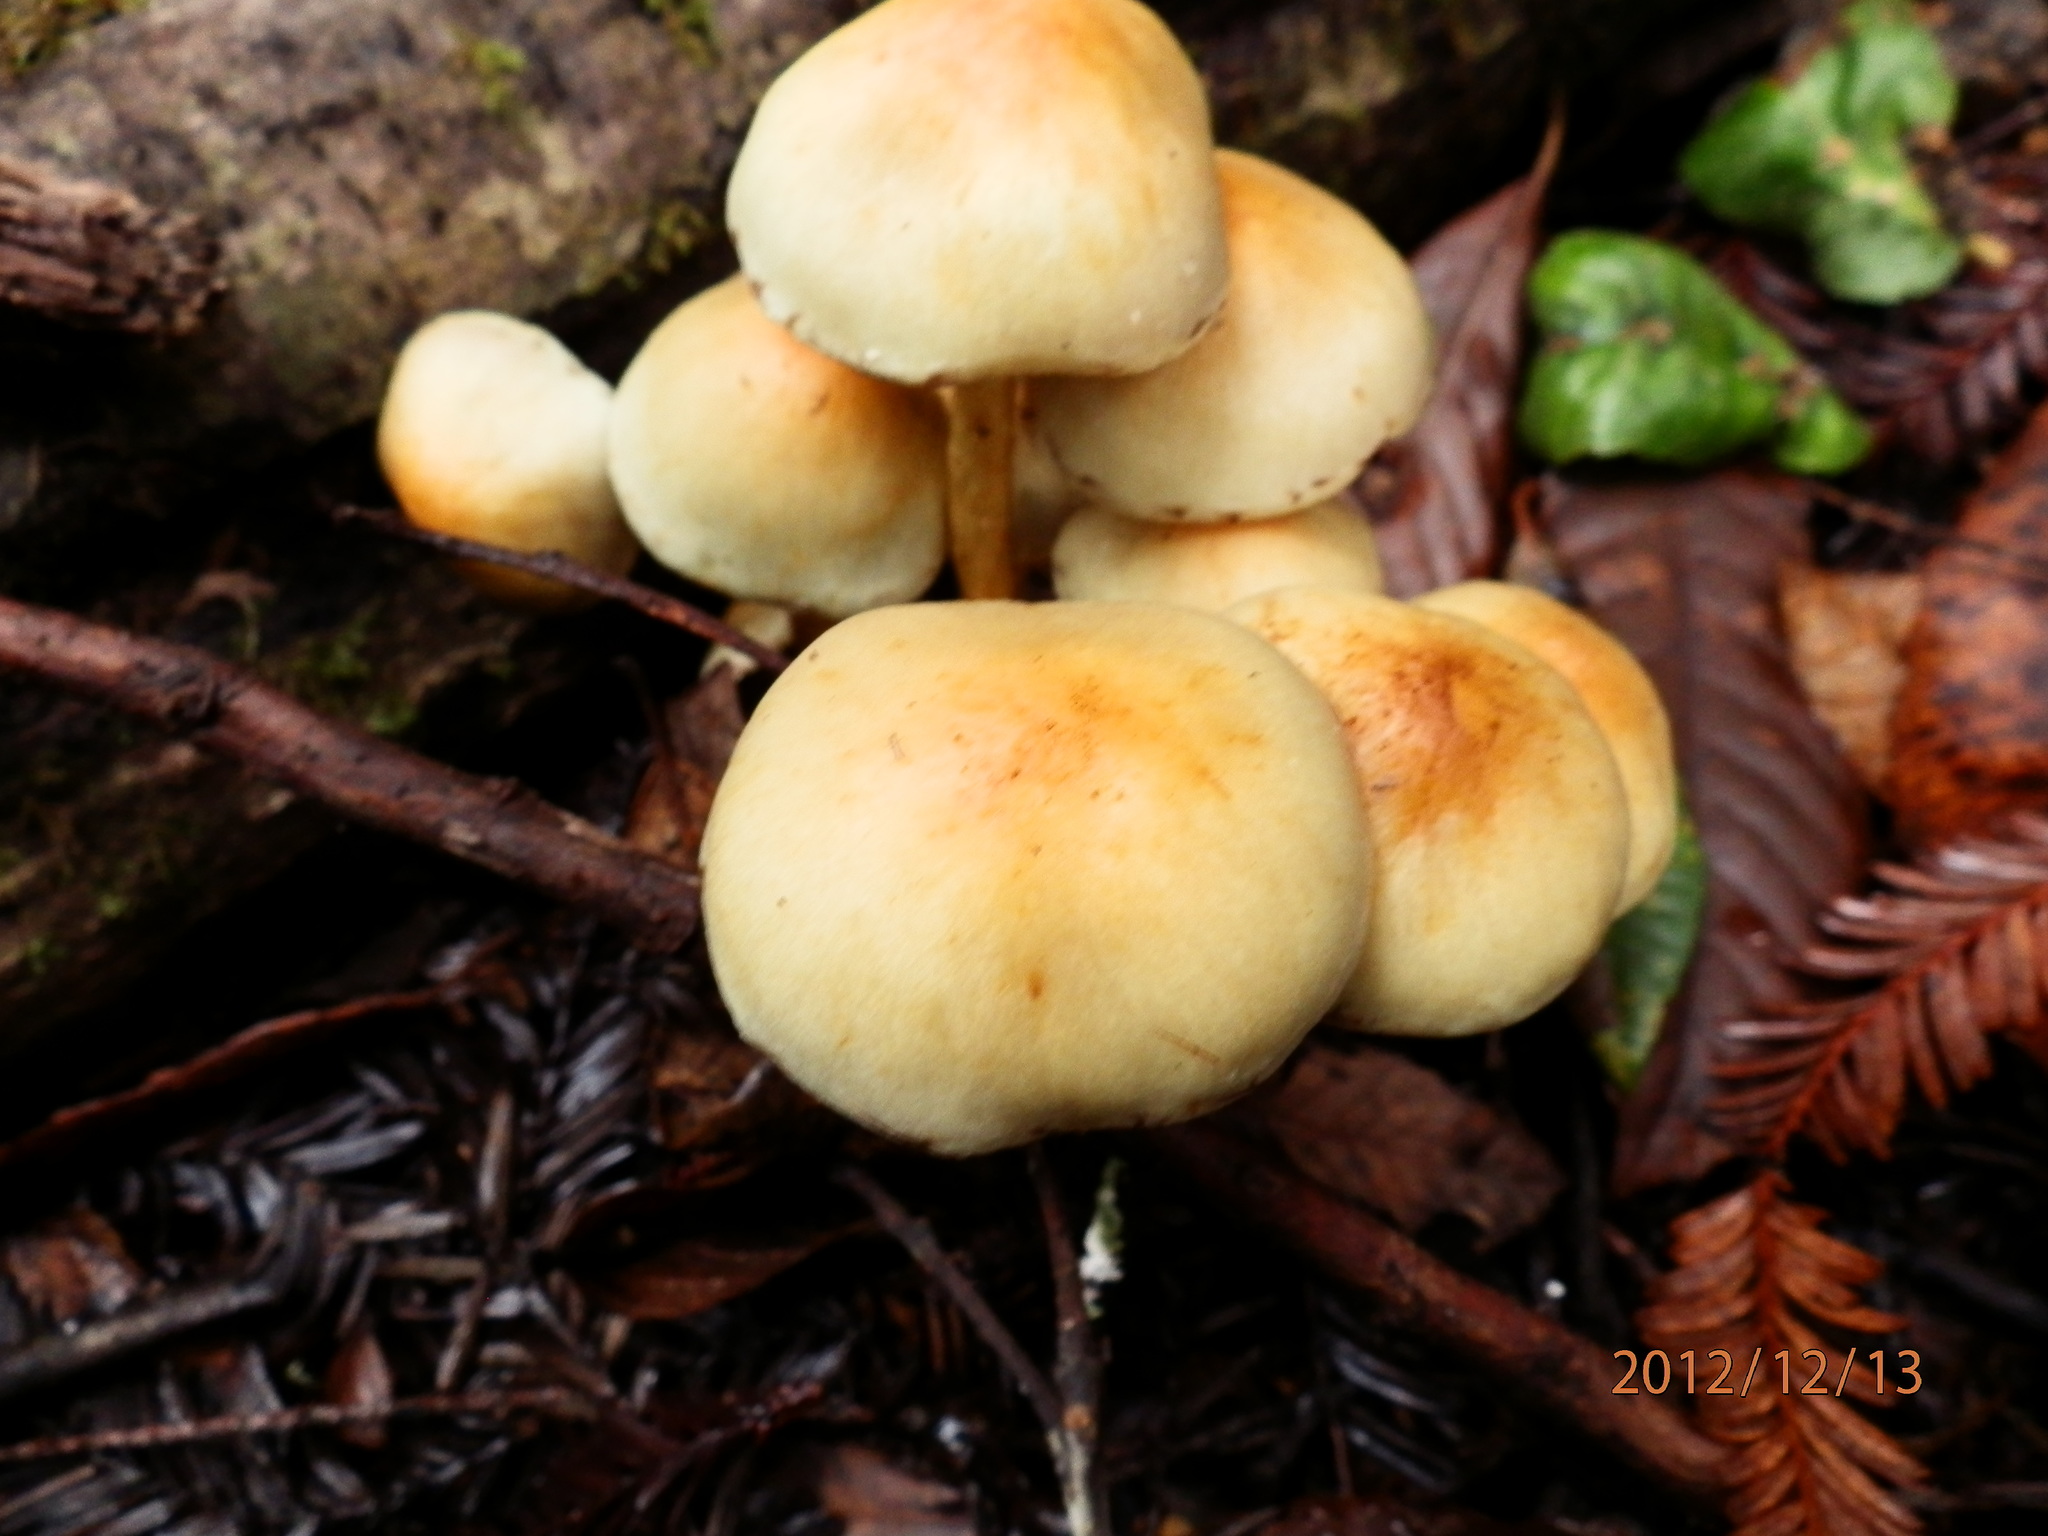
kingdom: Fungi
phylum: Basidiomycota
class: Agaricomycetes
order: Agaricales
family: Strophariaceae
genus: Hypholoma
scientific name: Hypholoma fasciculare
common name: Sulphur tuft
